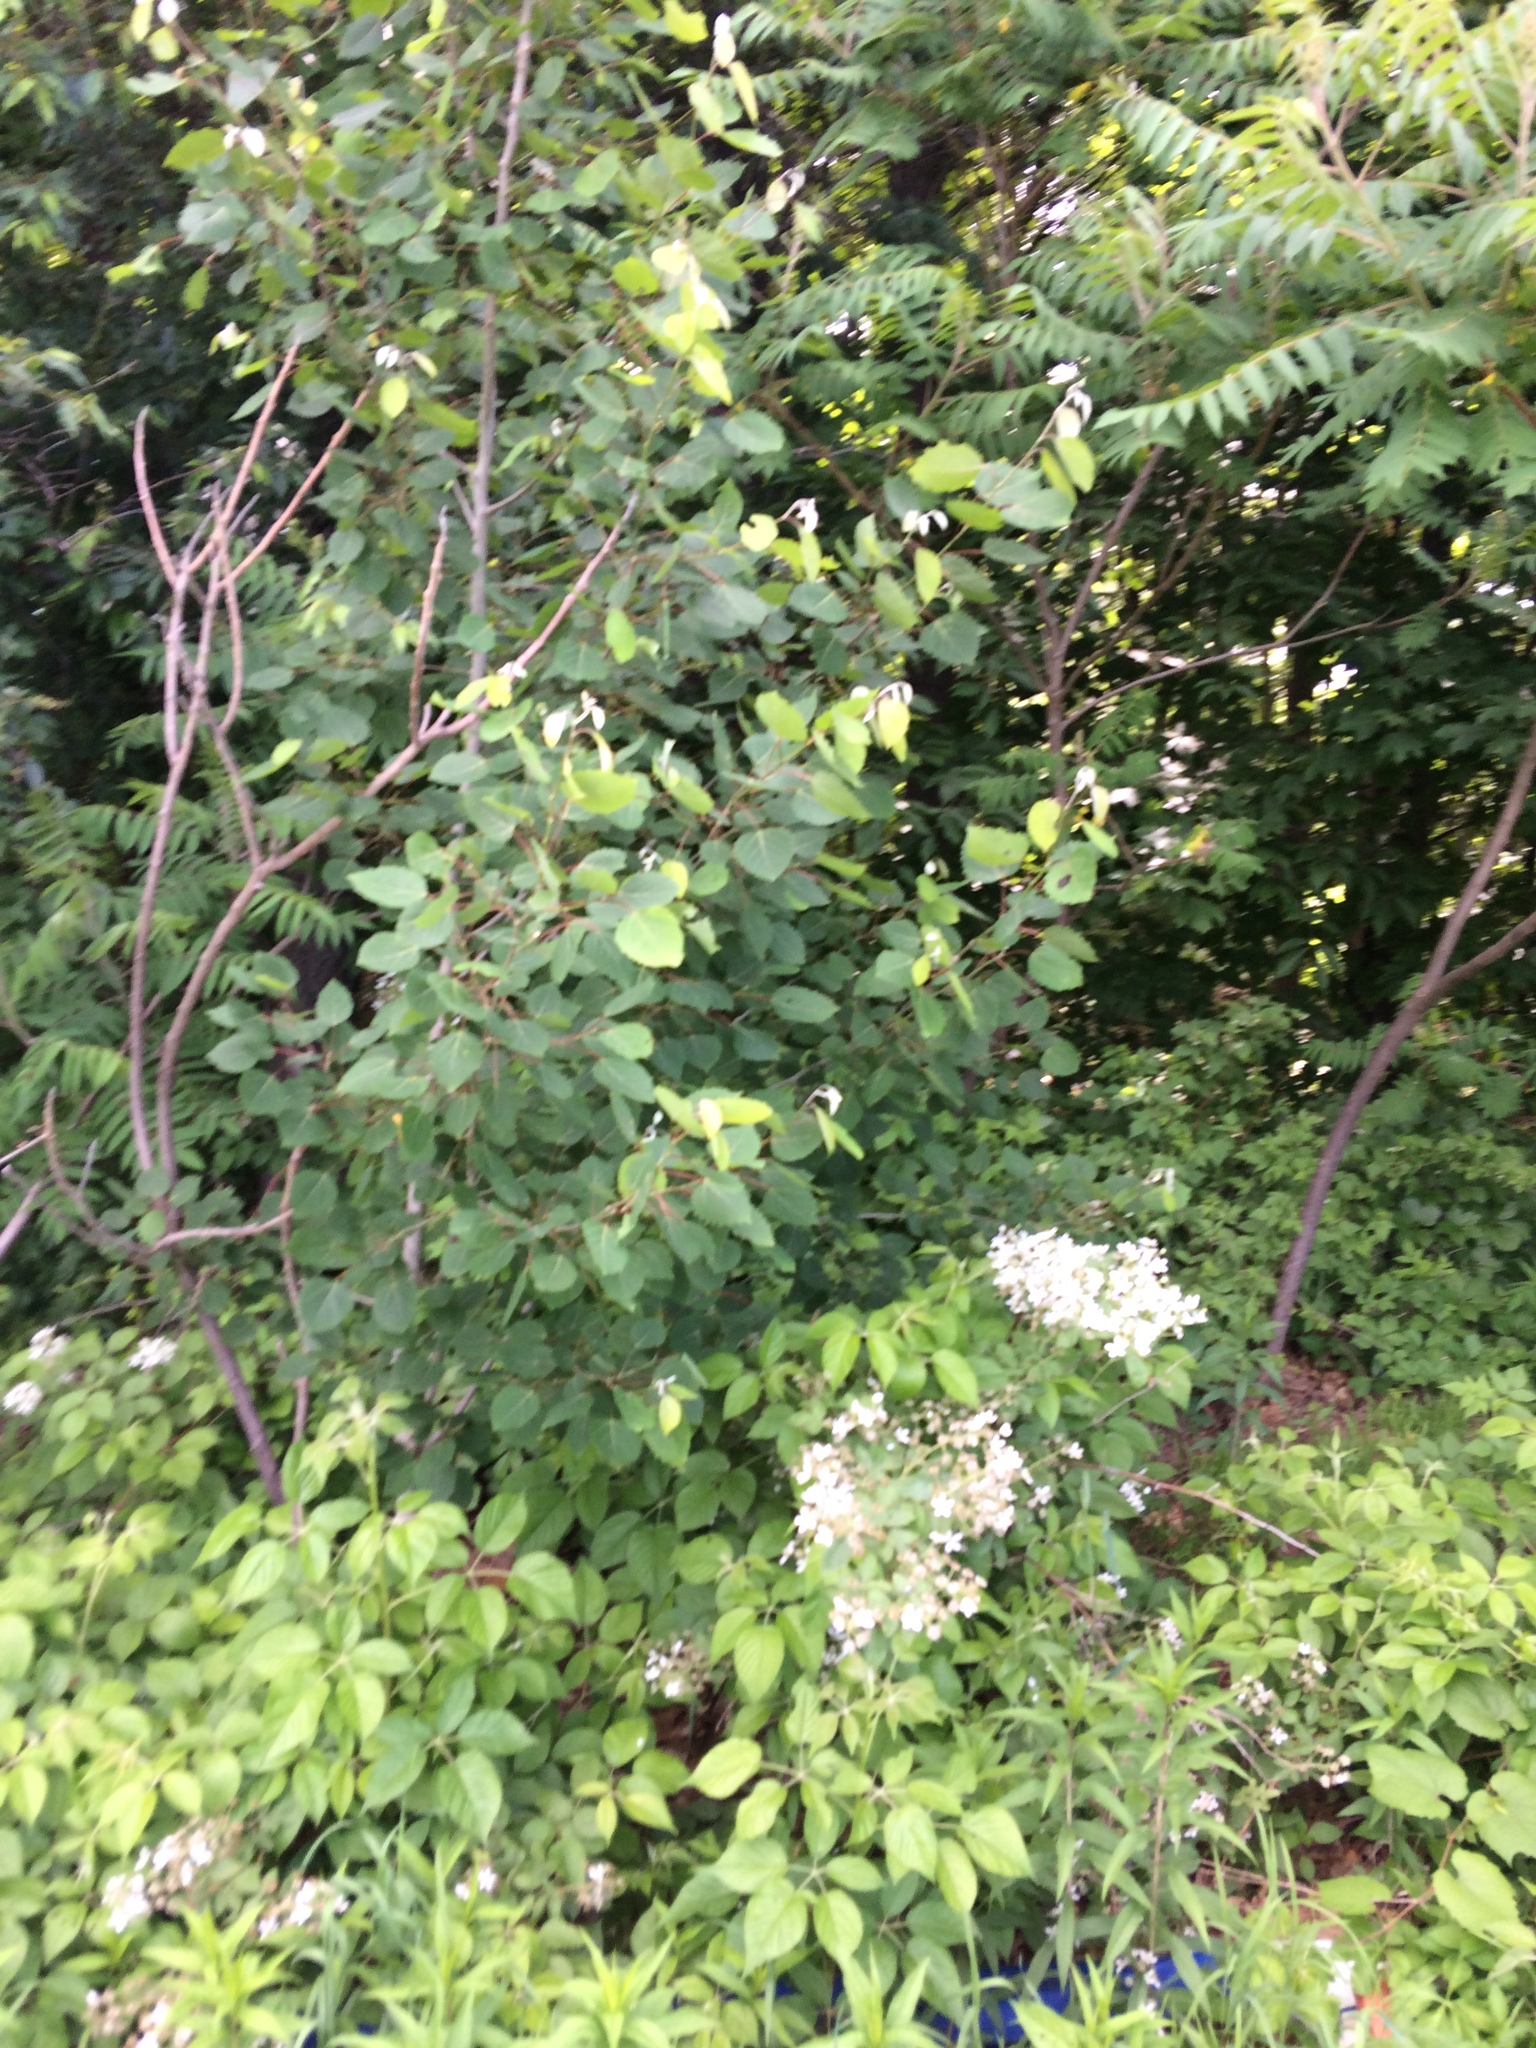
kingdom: Plantae
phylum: Tracheophyta
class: Magnoliopsida
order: Malpighiales
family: Salicaceae
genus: Populus
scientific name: Populus grandidentata
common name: Bigtooth aspen
